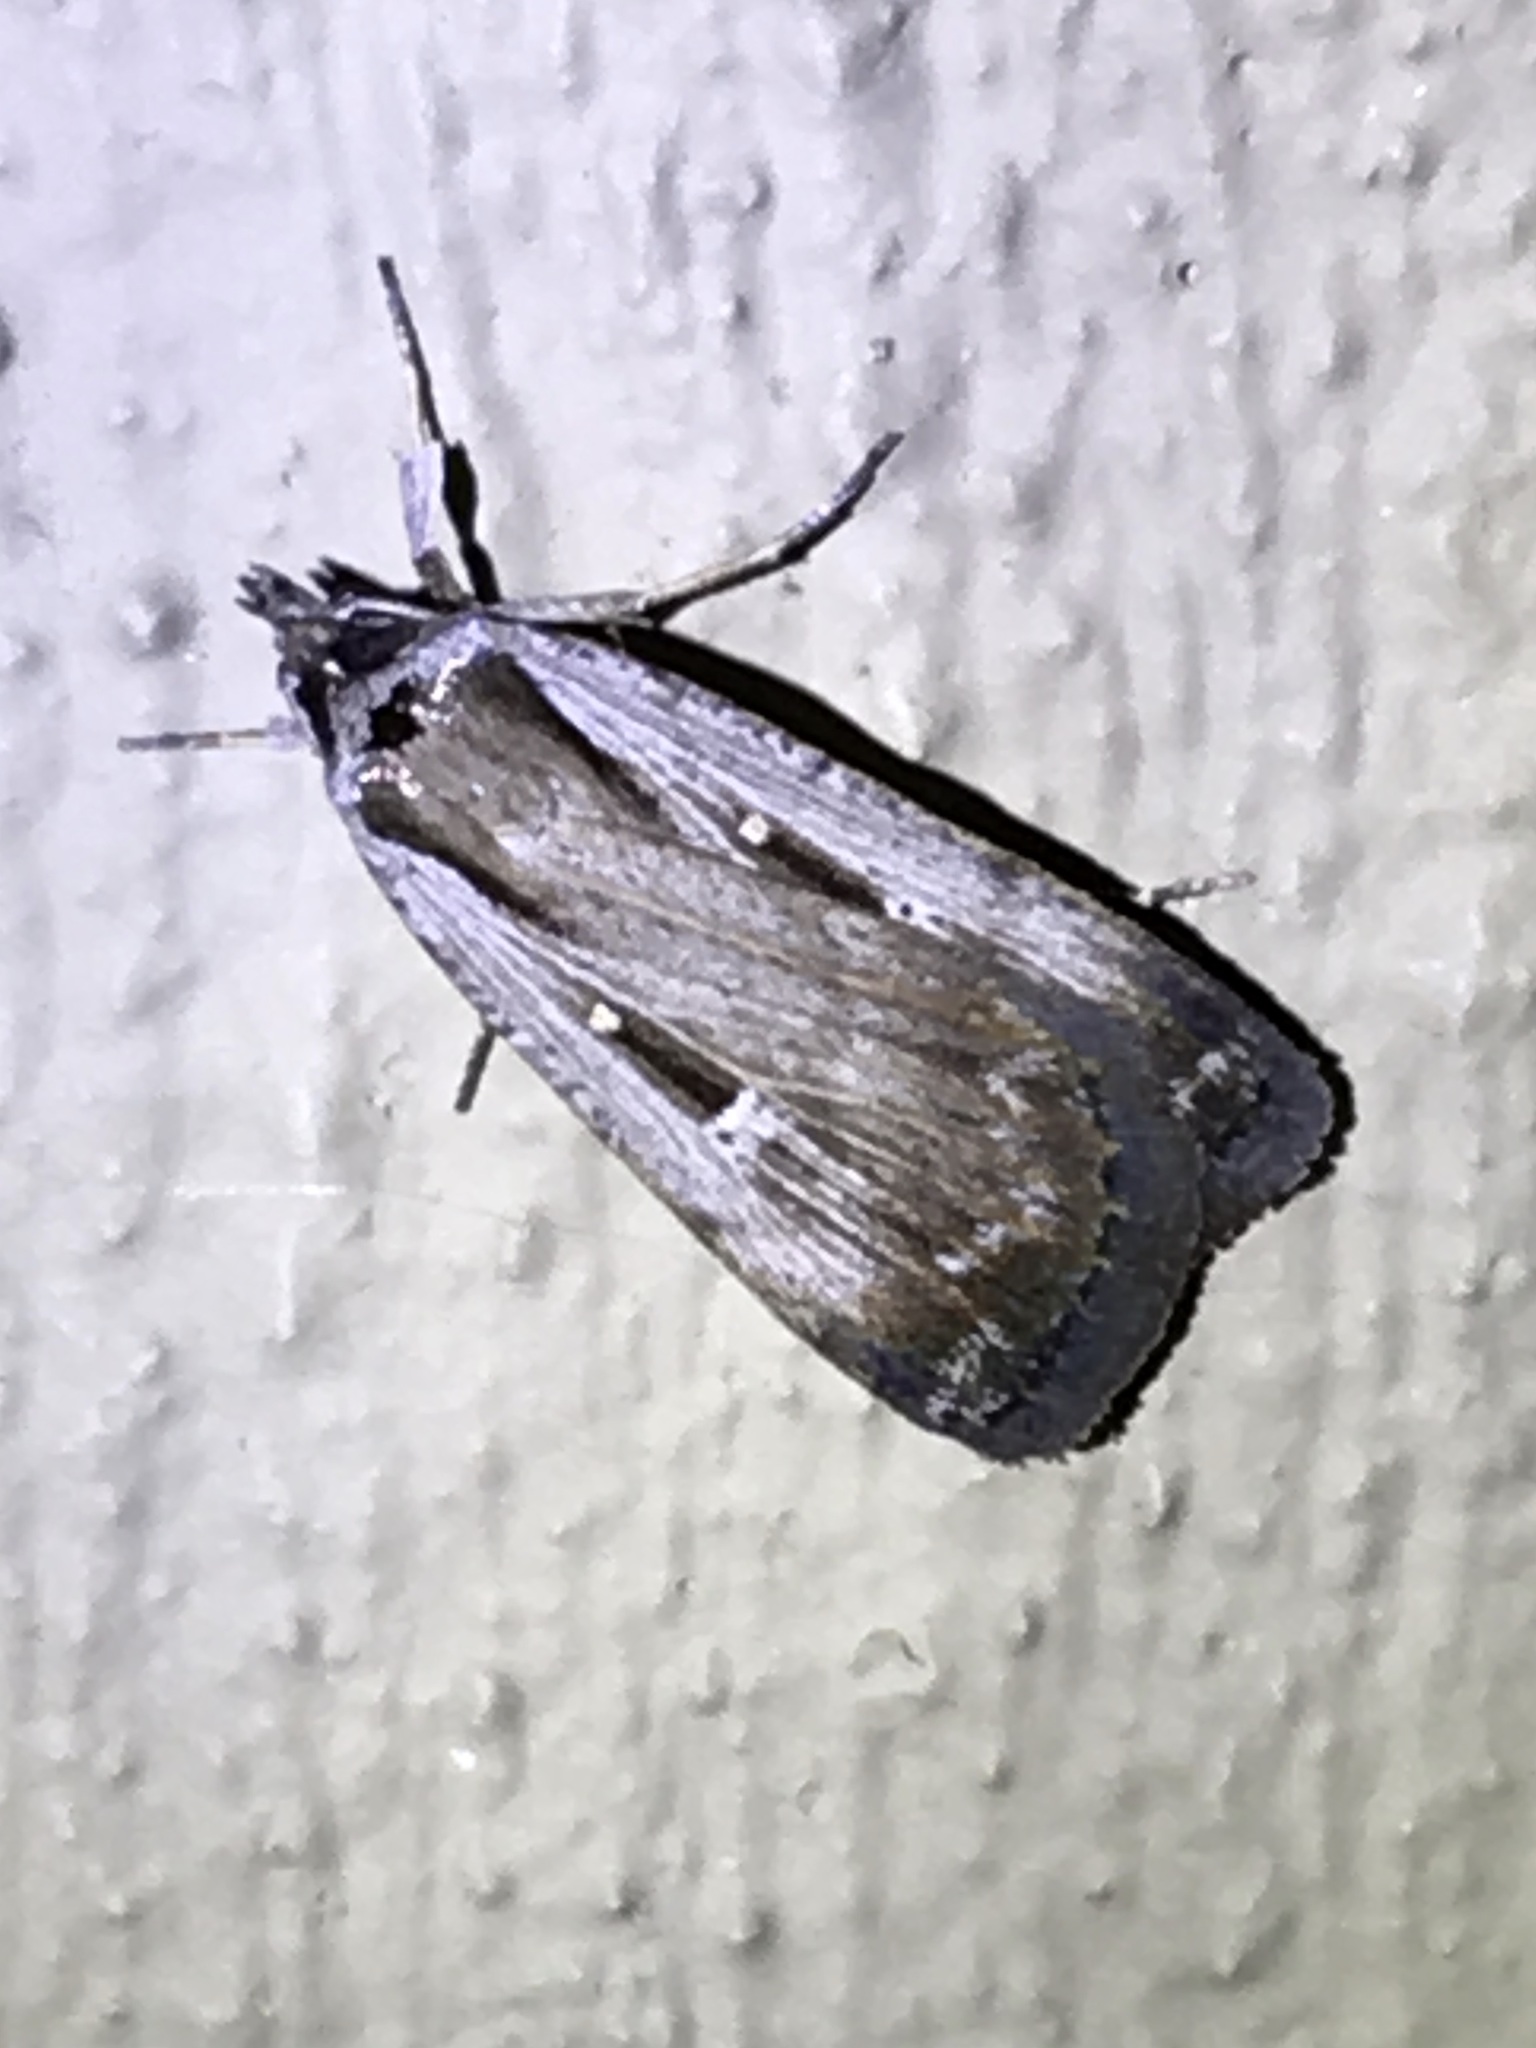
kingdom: Animalia
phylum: Arthropoda
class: Insecta
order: Lepidoptera
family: Noctuidae
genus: Tathorhynchus
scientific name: Tathorhynchus exsiccata
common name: Levant blackneck moth
